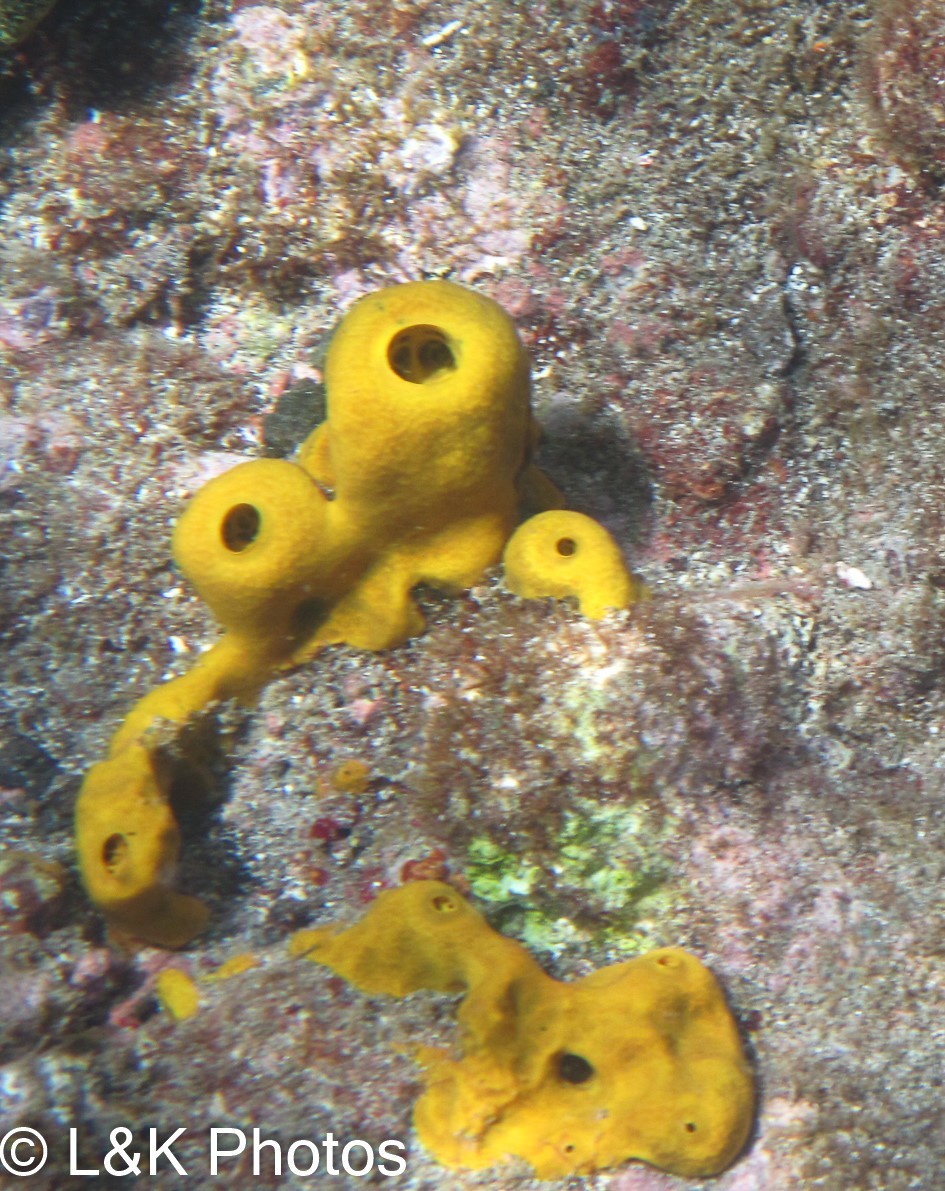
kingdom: Animalia
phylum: Porifera
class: Demospongiae
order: Verongiida
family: Aplysinidae
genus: Aplysina
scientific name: Aplysina fistularis
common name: Candle sponge
